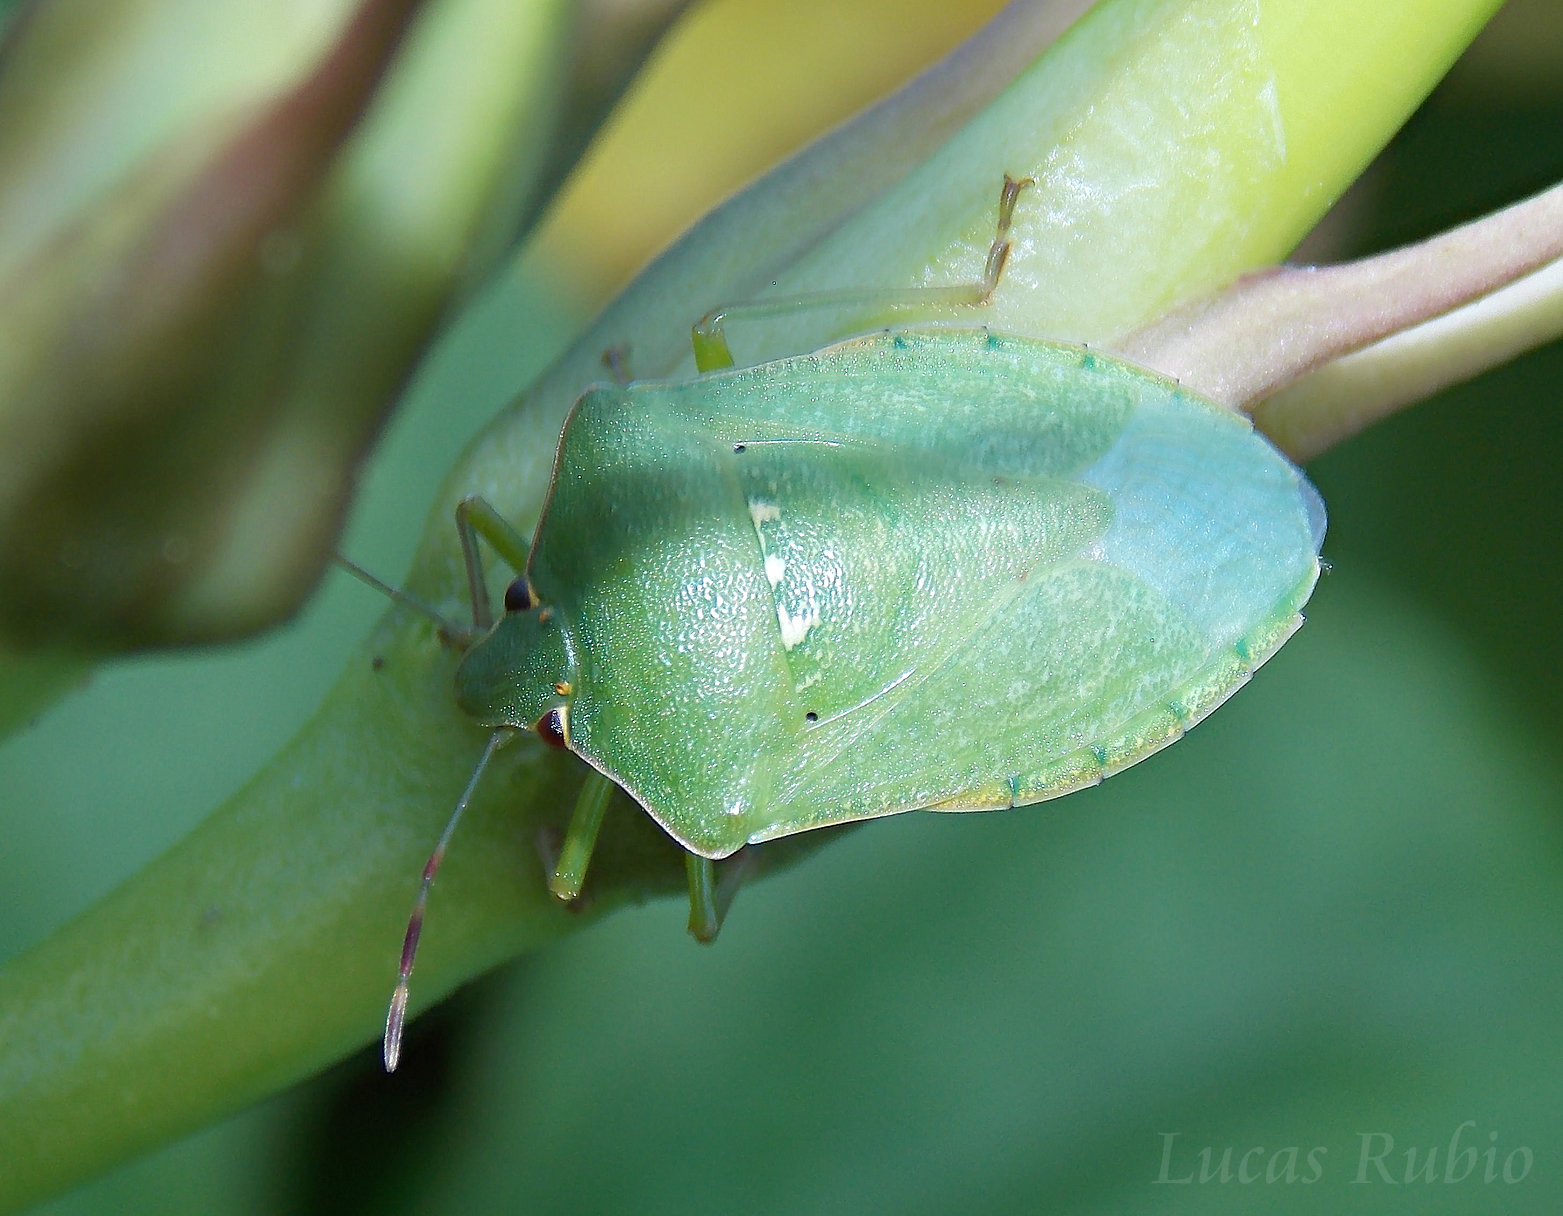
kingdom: Animalia
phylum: Arthropoda
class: Insecta
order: Hemiptera
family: Pentatomidae
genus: Nezara
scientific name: Nezara viridula
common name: Southern green stink bug
